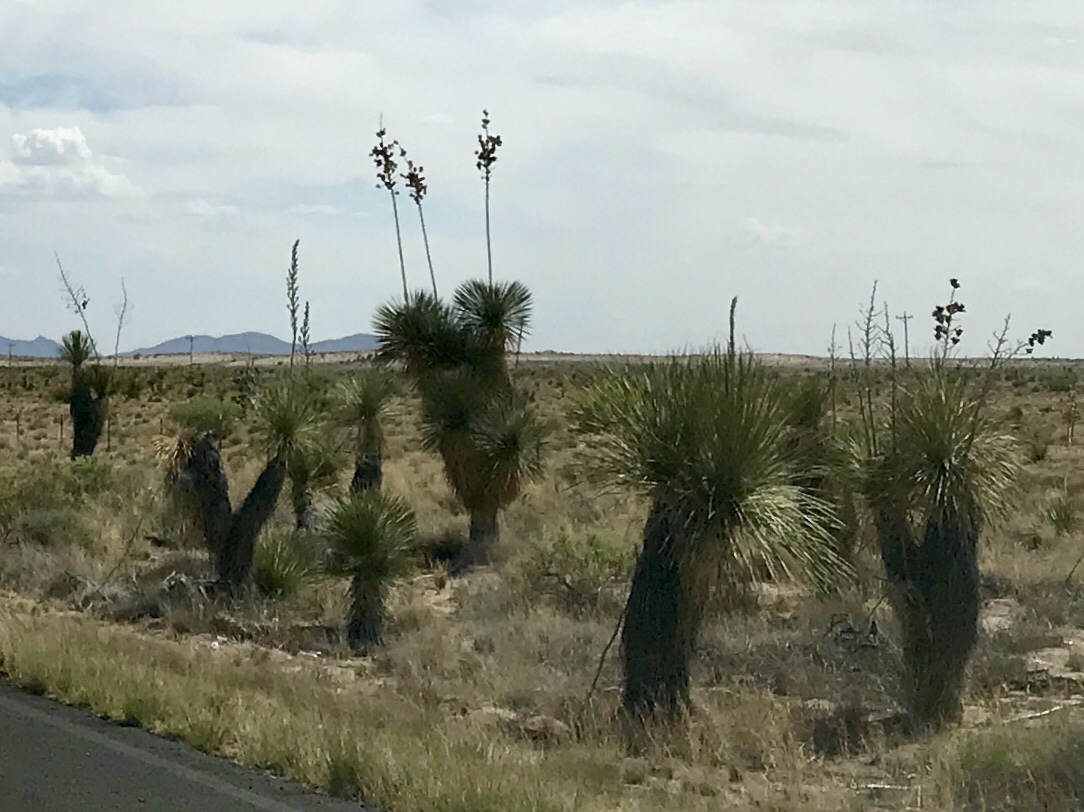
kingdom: Plantae
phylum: Tracheophyta
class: Liliopsida
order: Asparagales
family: Asparagaceae
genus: Yucca
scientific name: Yucca elata
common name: Palmella
